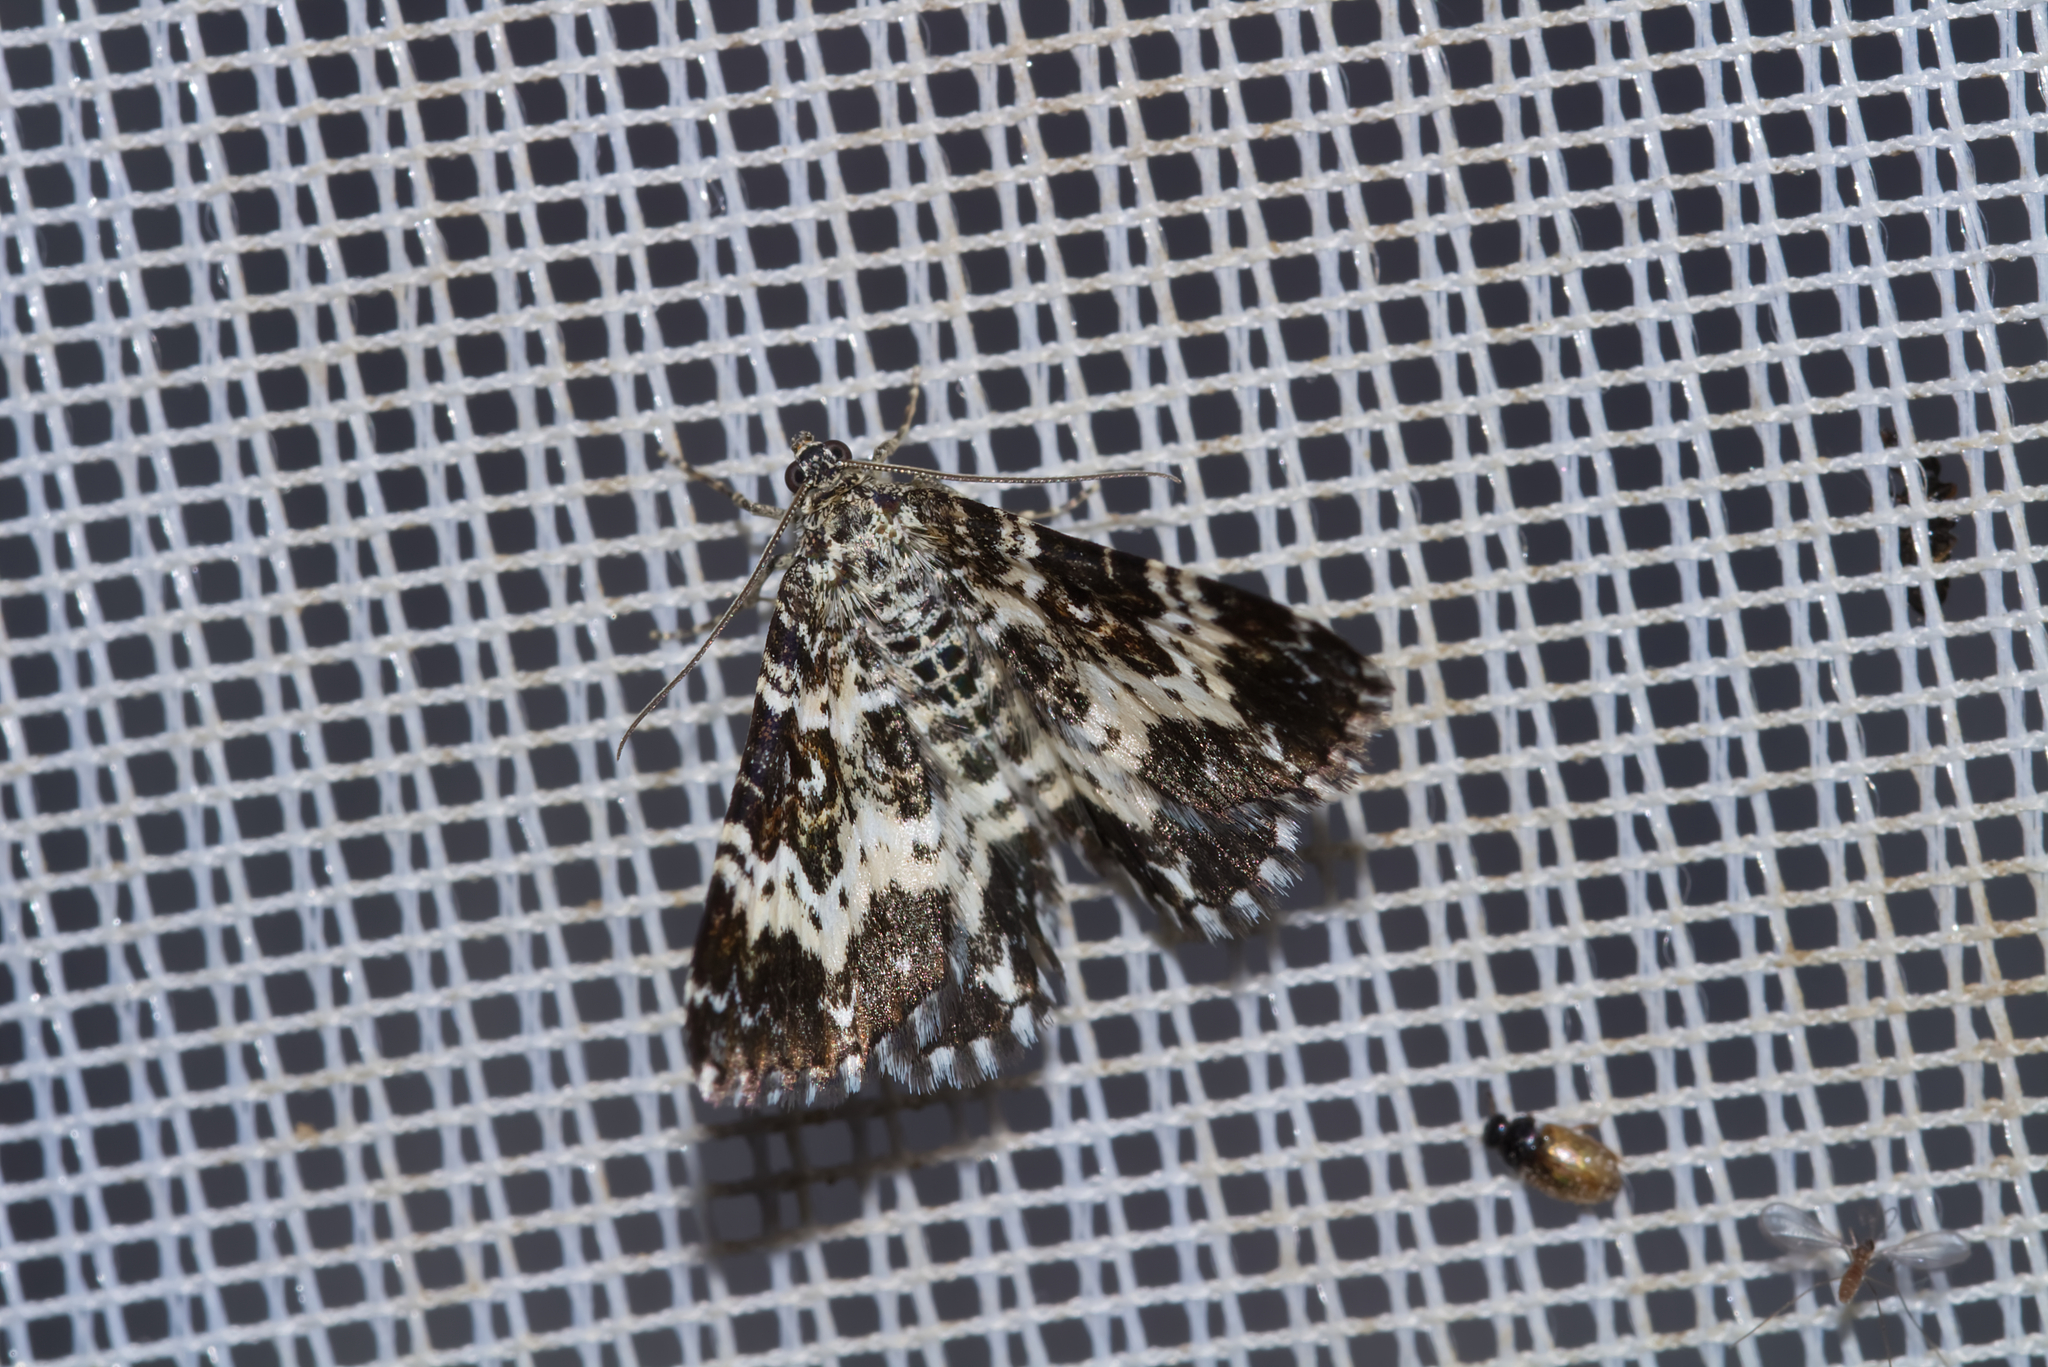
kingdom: Animalia
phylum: Arthropoda
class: Insecta
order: Lepidoptera
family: Geometridae
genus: Epirrhoe
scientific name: Epirrhoe tristata
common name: Small argent & sable
